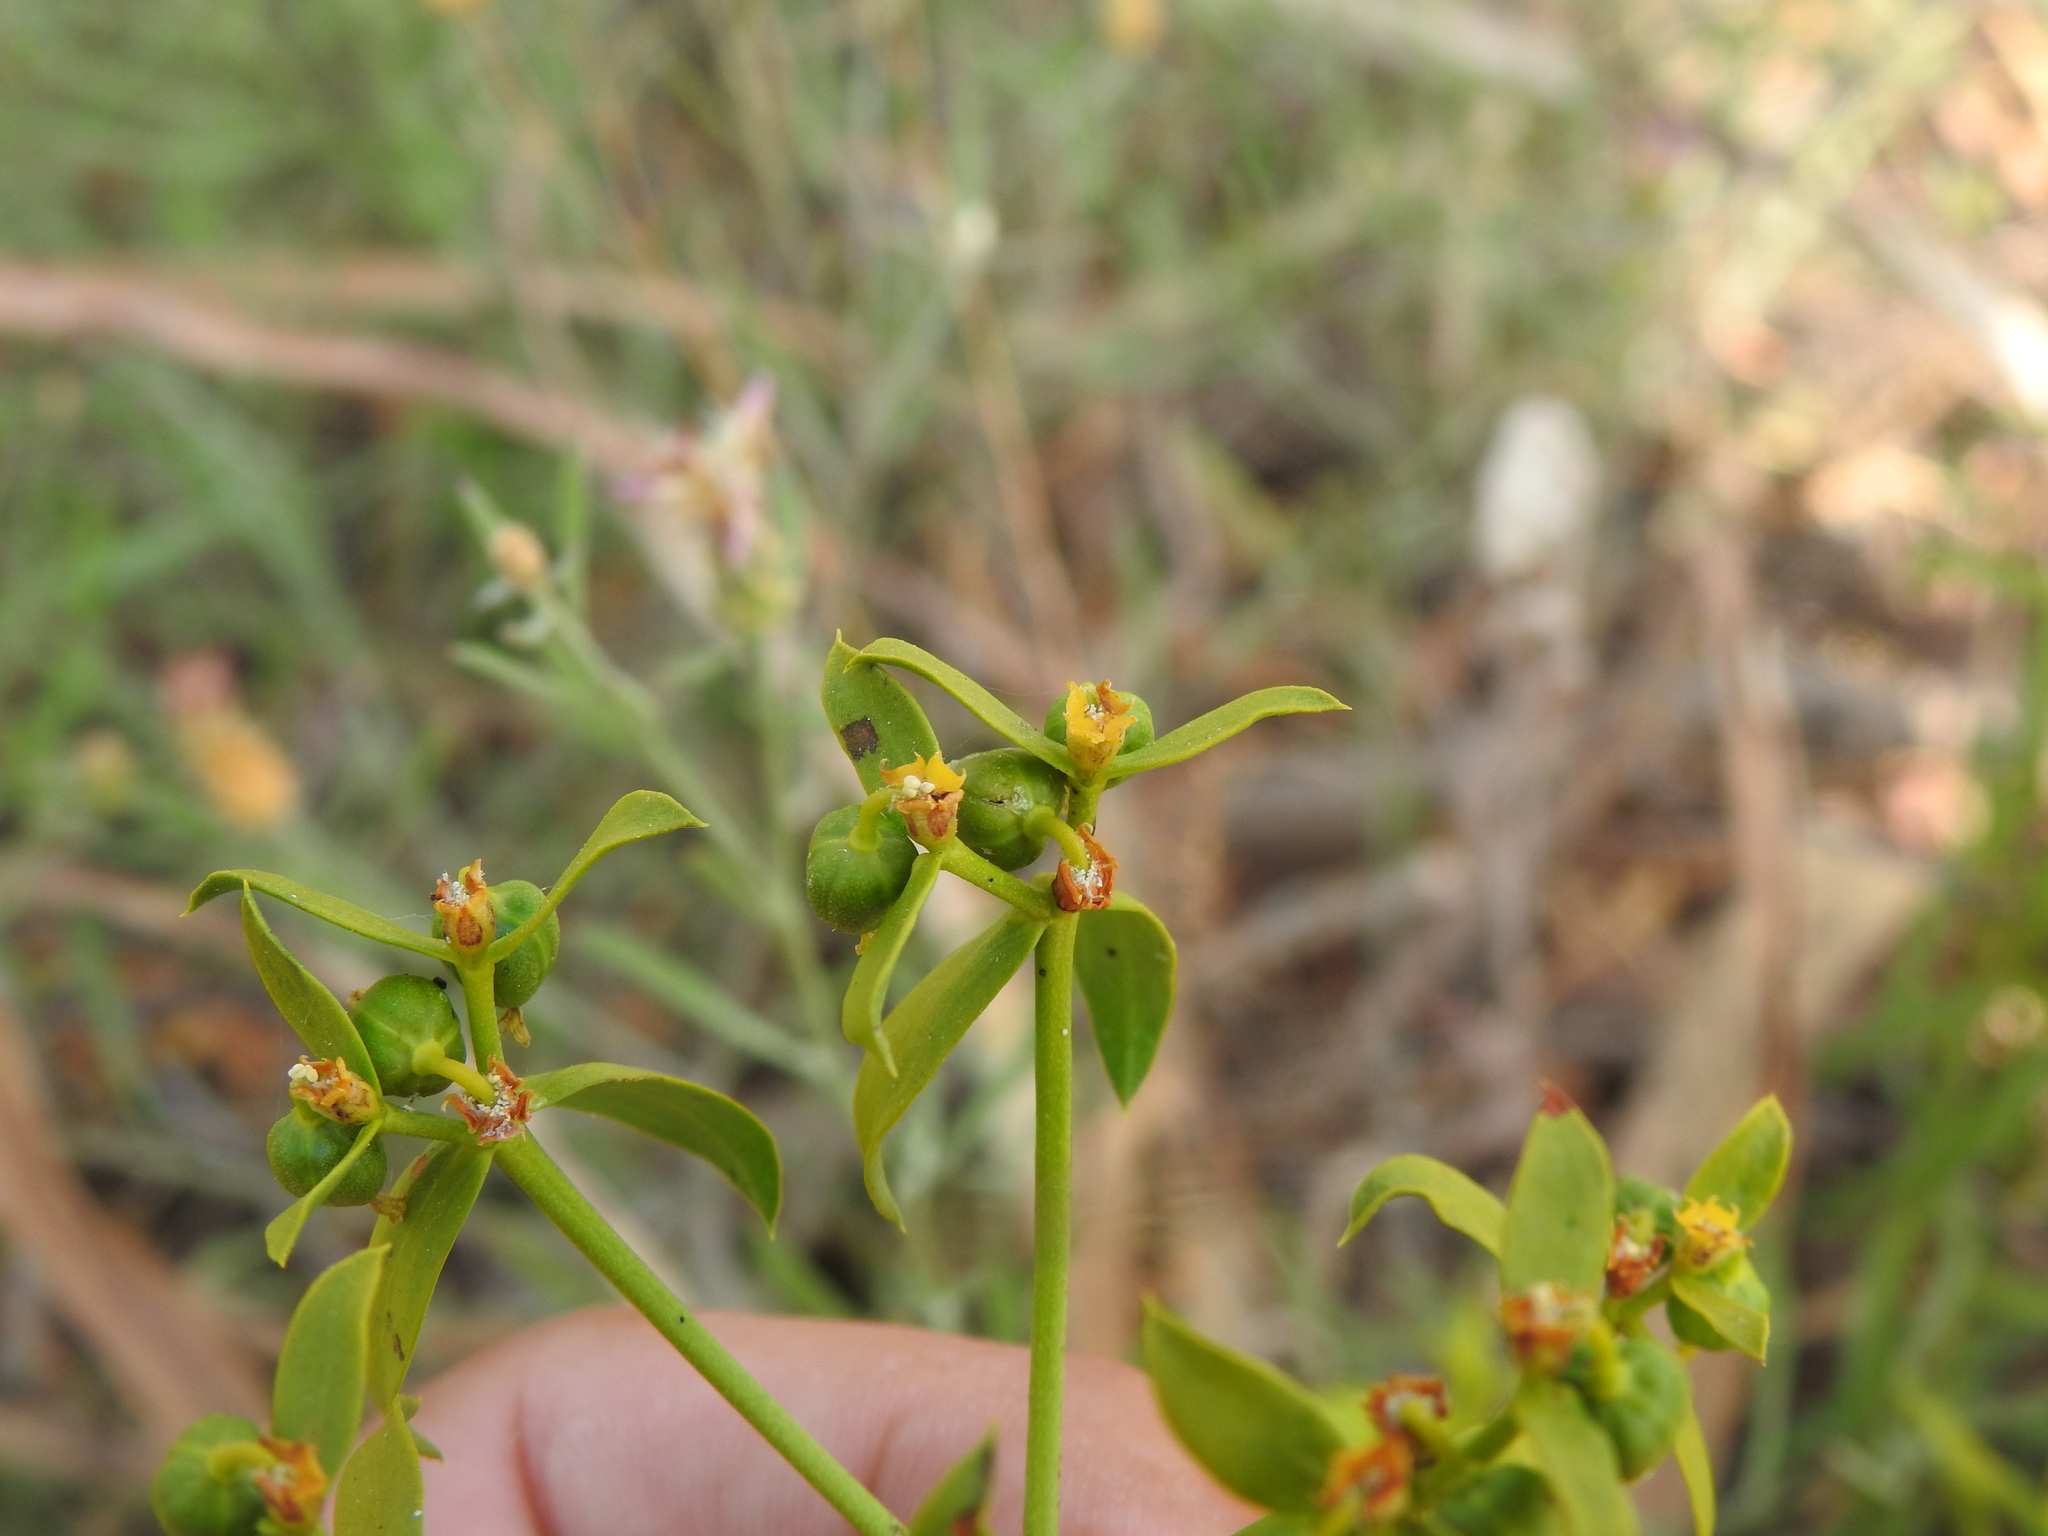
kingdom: Plantae
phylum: Tracheophyta
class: Magnoliopsida
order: Malpighiales
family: Euphorbiaceae
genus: Euphorbia
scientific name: Euphorbia boetica
